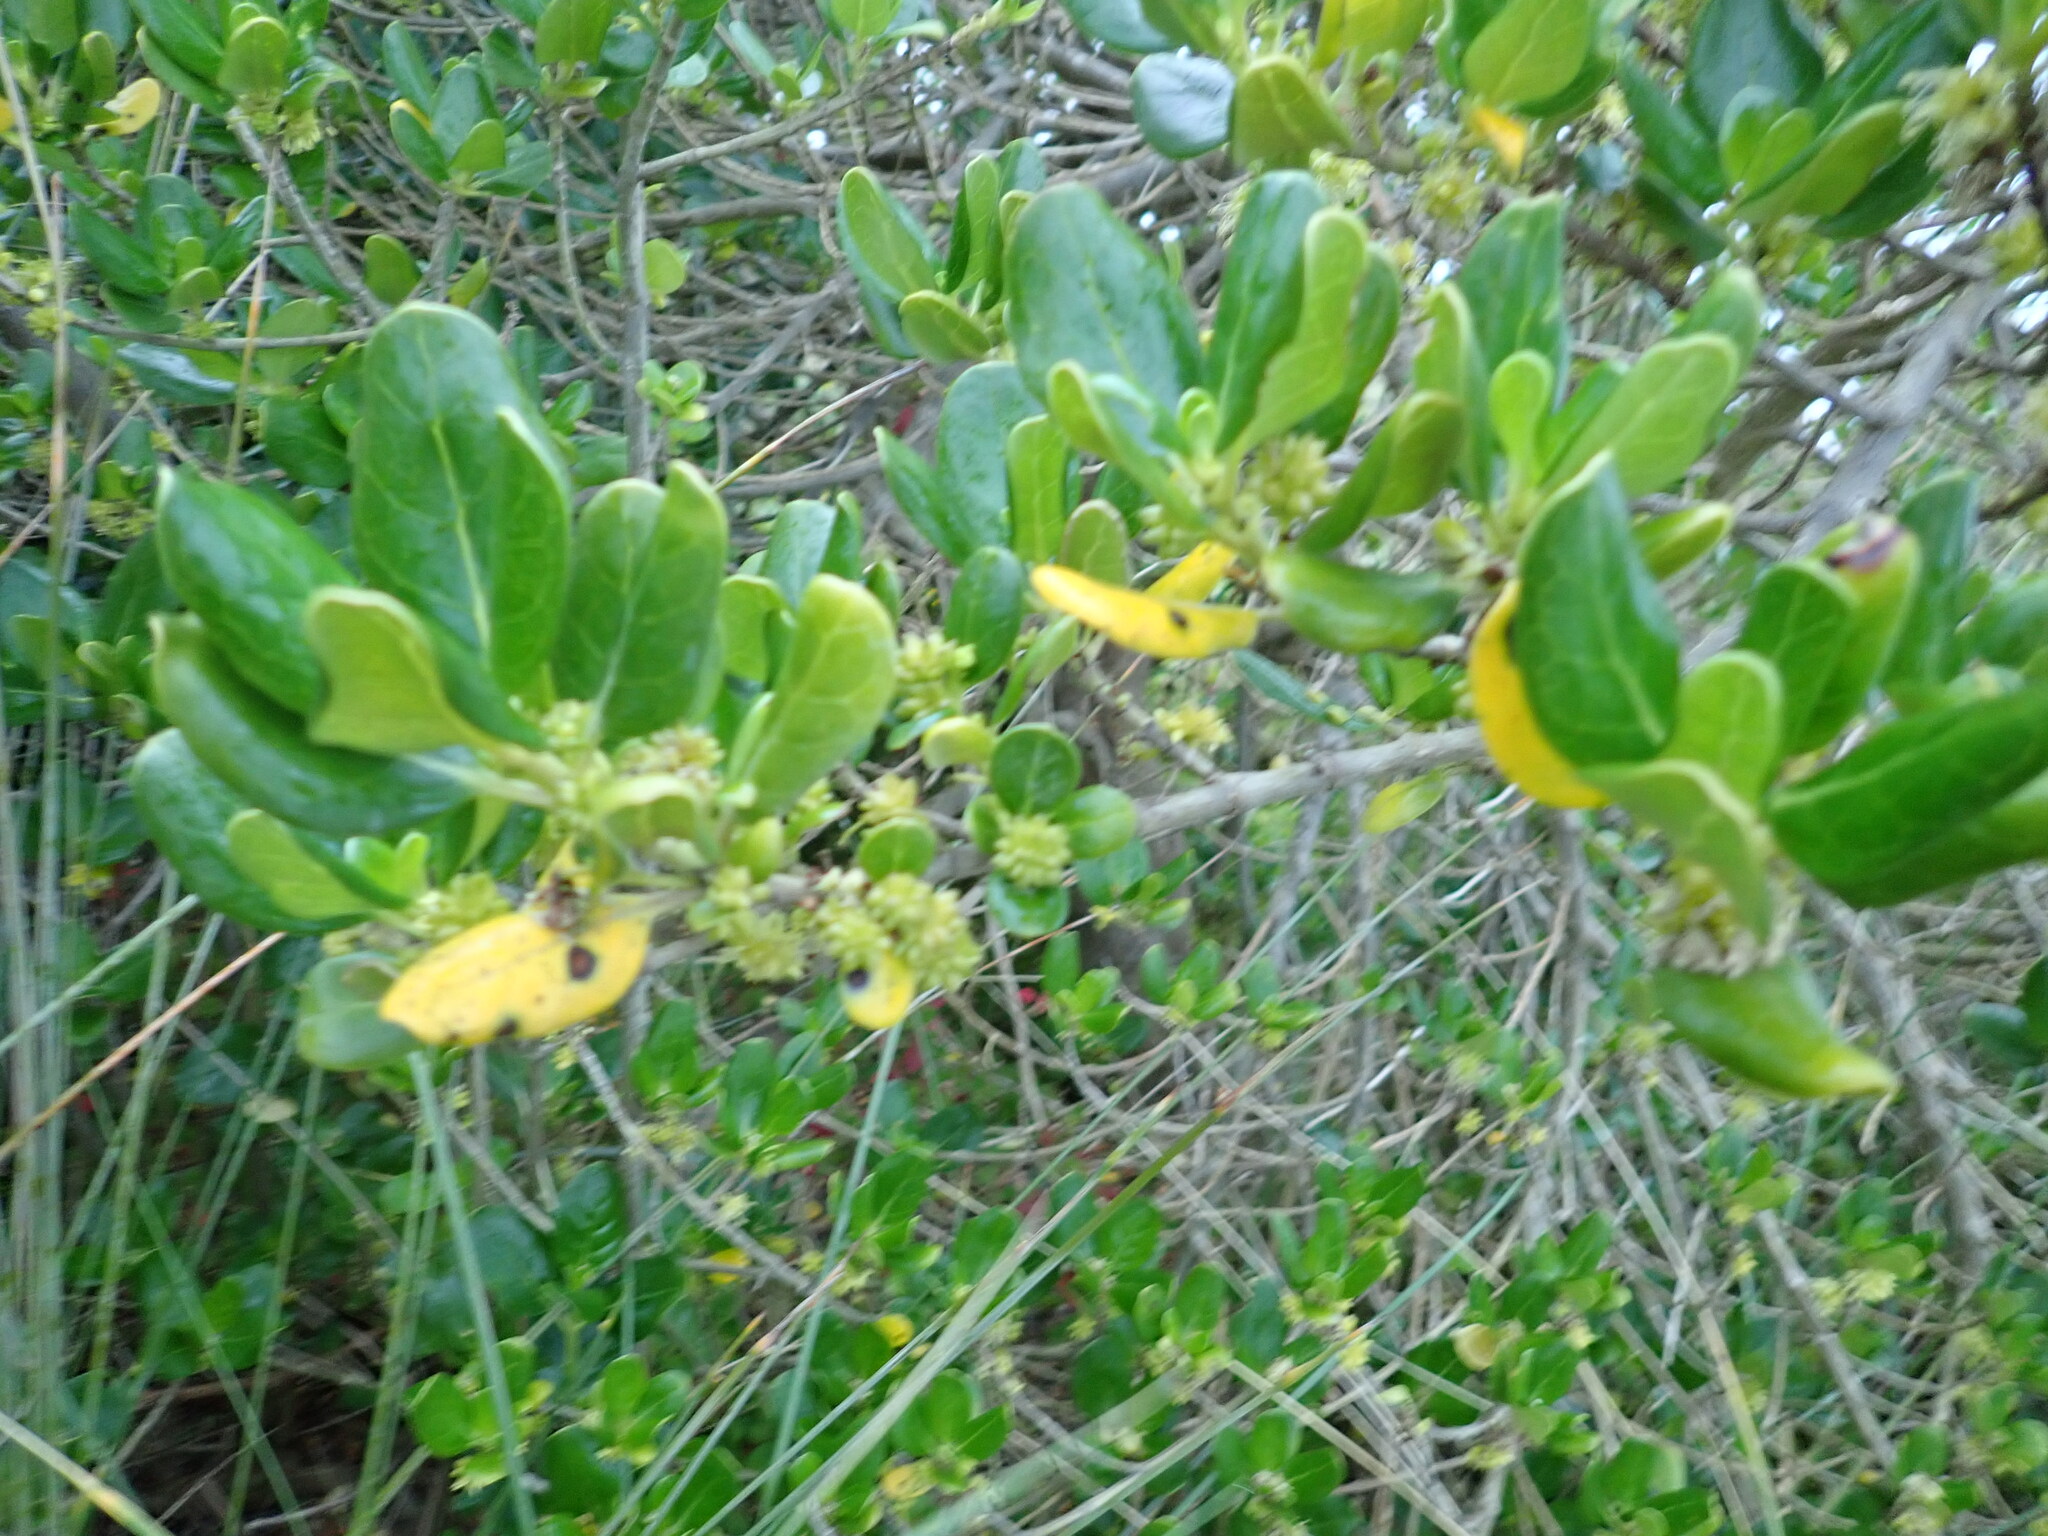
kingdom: Plantae
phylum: Tracheophyta
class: Magnoliopsida
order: Gentianales
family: Rubiaceae
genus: Coprosma
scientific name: Coprosma repens
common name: Tree bedstraw
